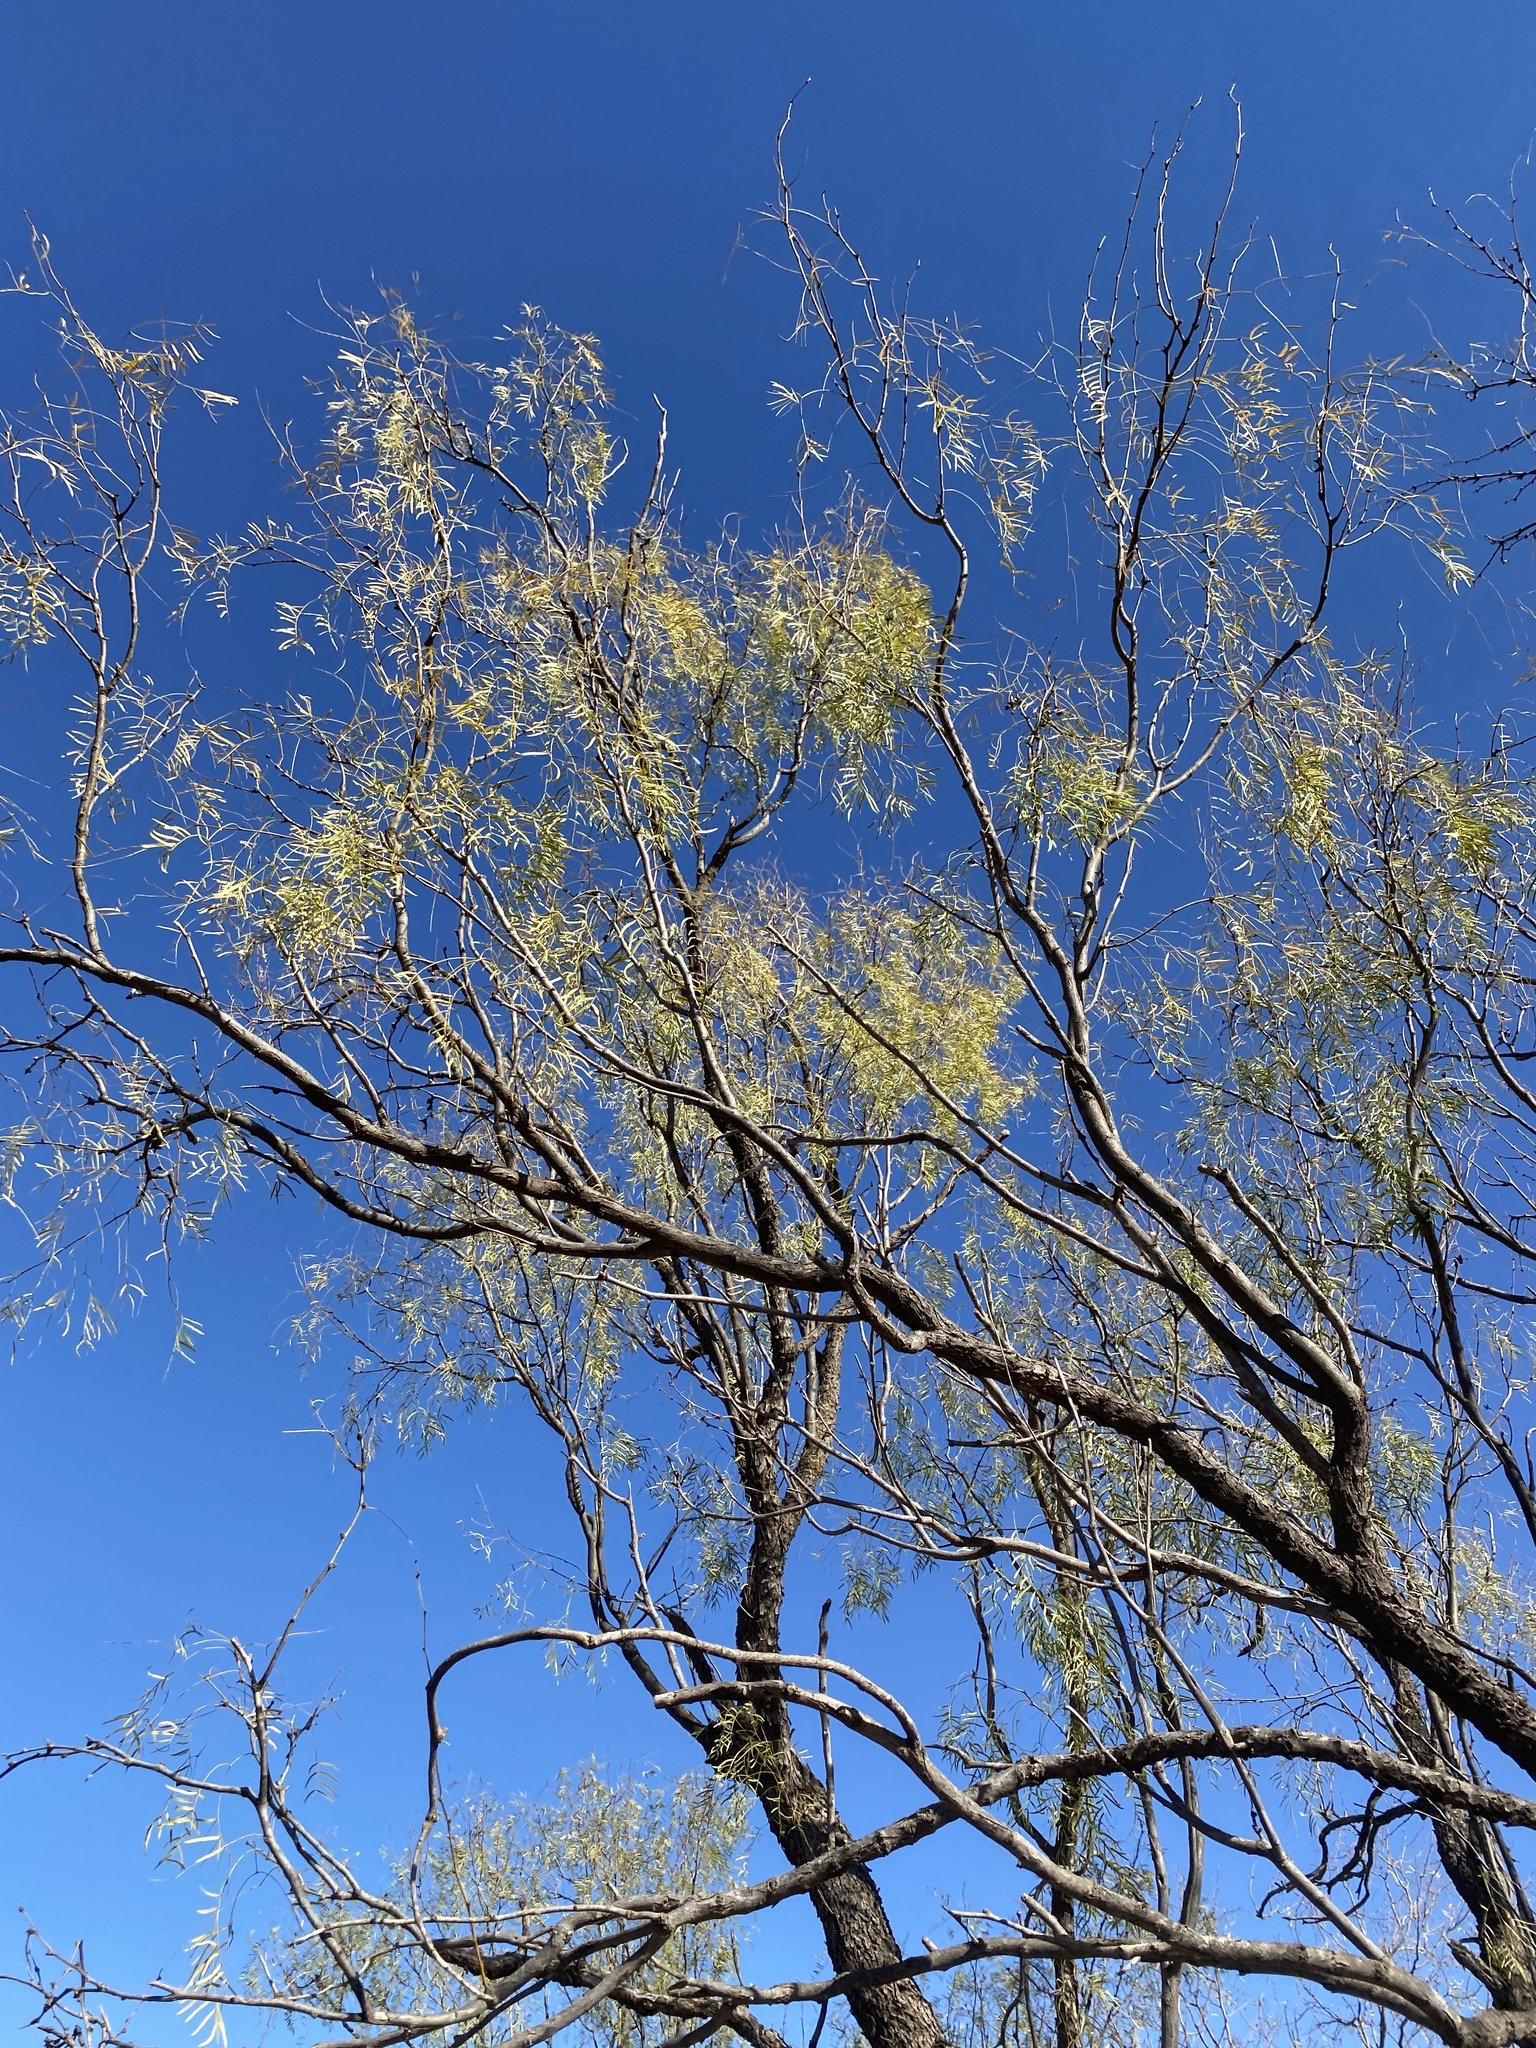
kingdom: Plantae
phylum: Tracheophyta
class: Magnoliopsida
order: Fabales
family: Fabaceae
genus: Prosopis
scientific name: Prosopis glandulosa
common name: Honey mesquite
